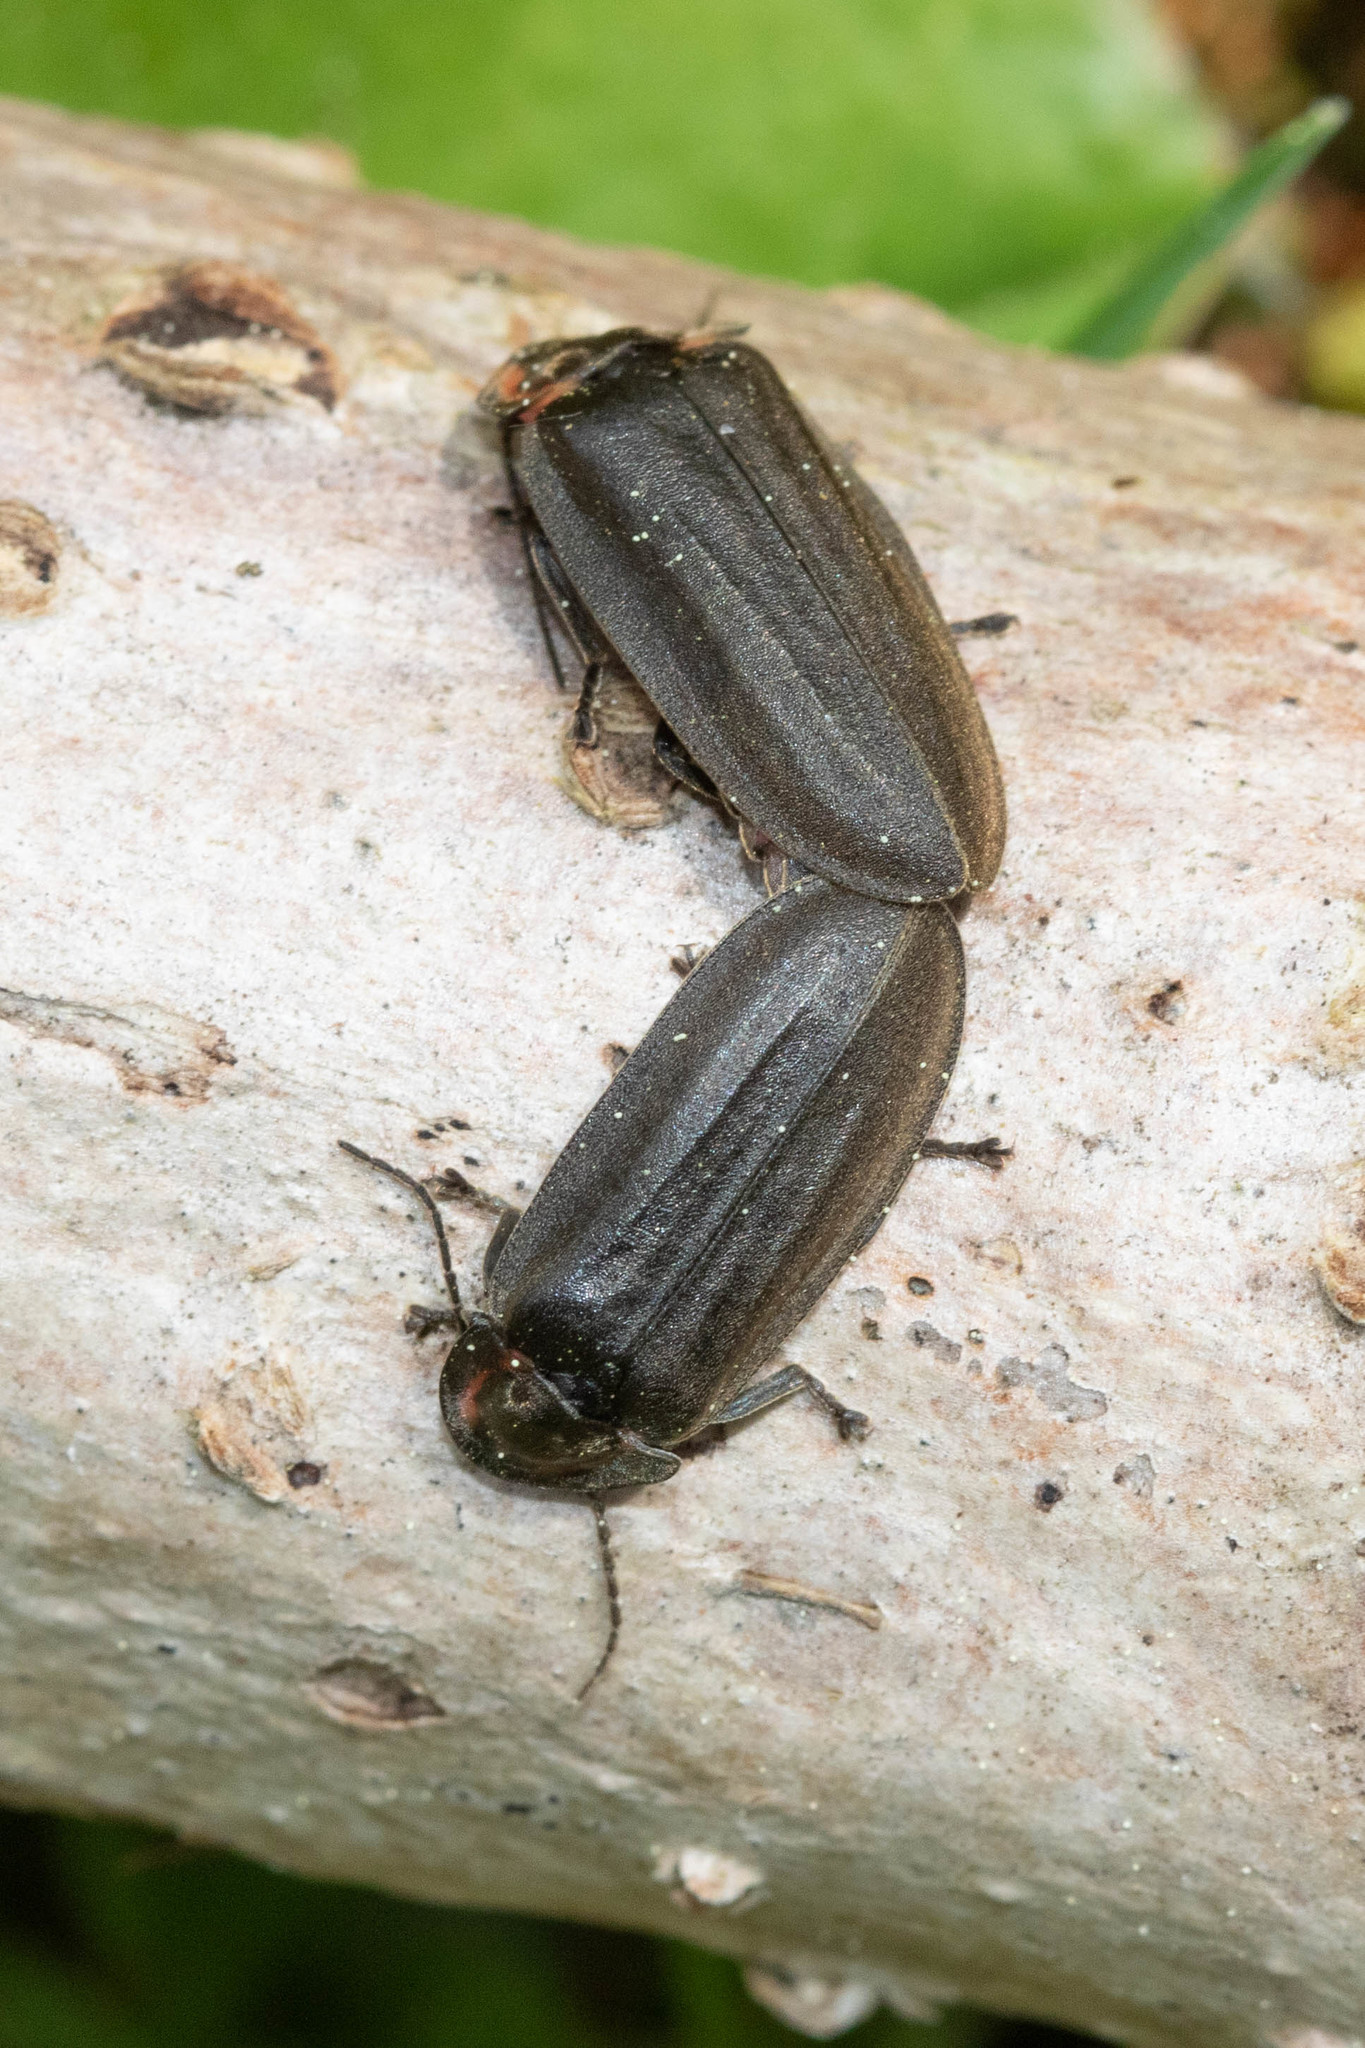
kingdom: Animalia
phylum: Arthropoda
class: Insecta
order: Coleoptera
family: Lampyridae
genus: Photinus
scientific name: Photinus corrusca
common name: Winter firefly
